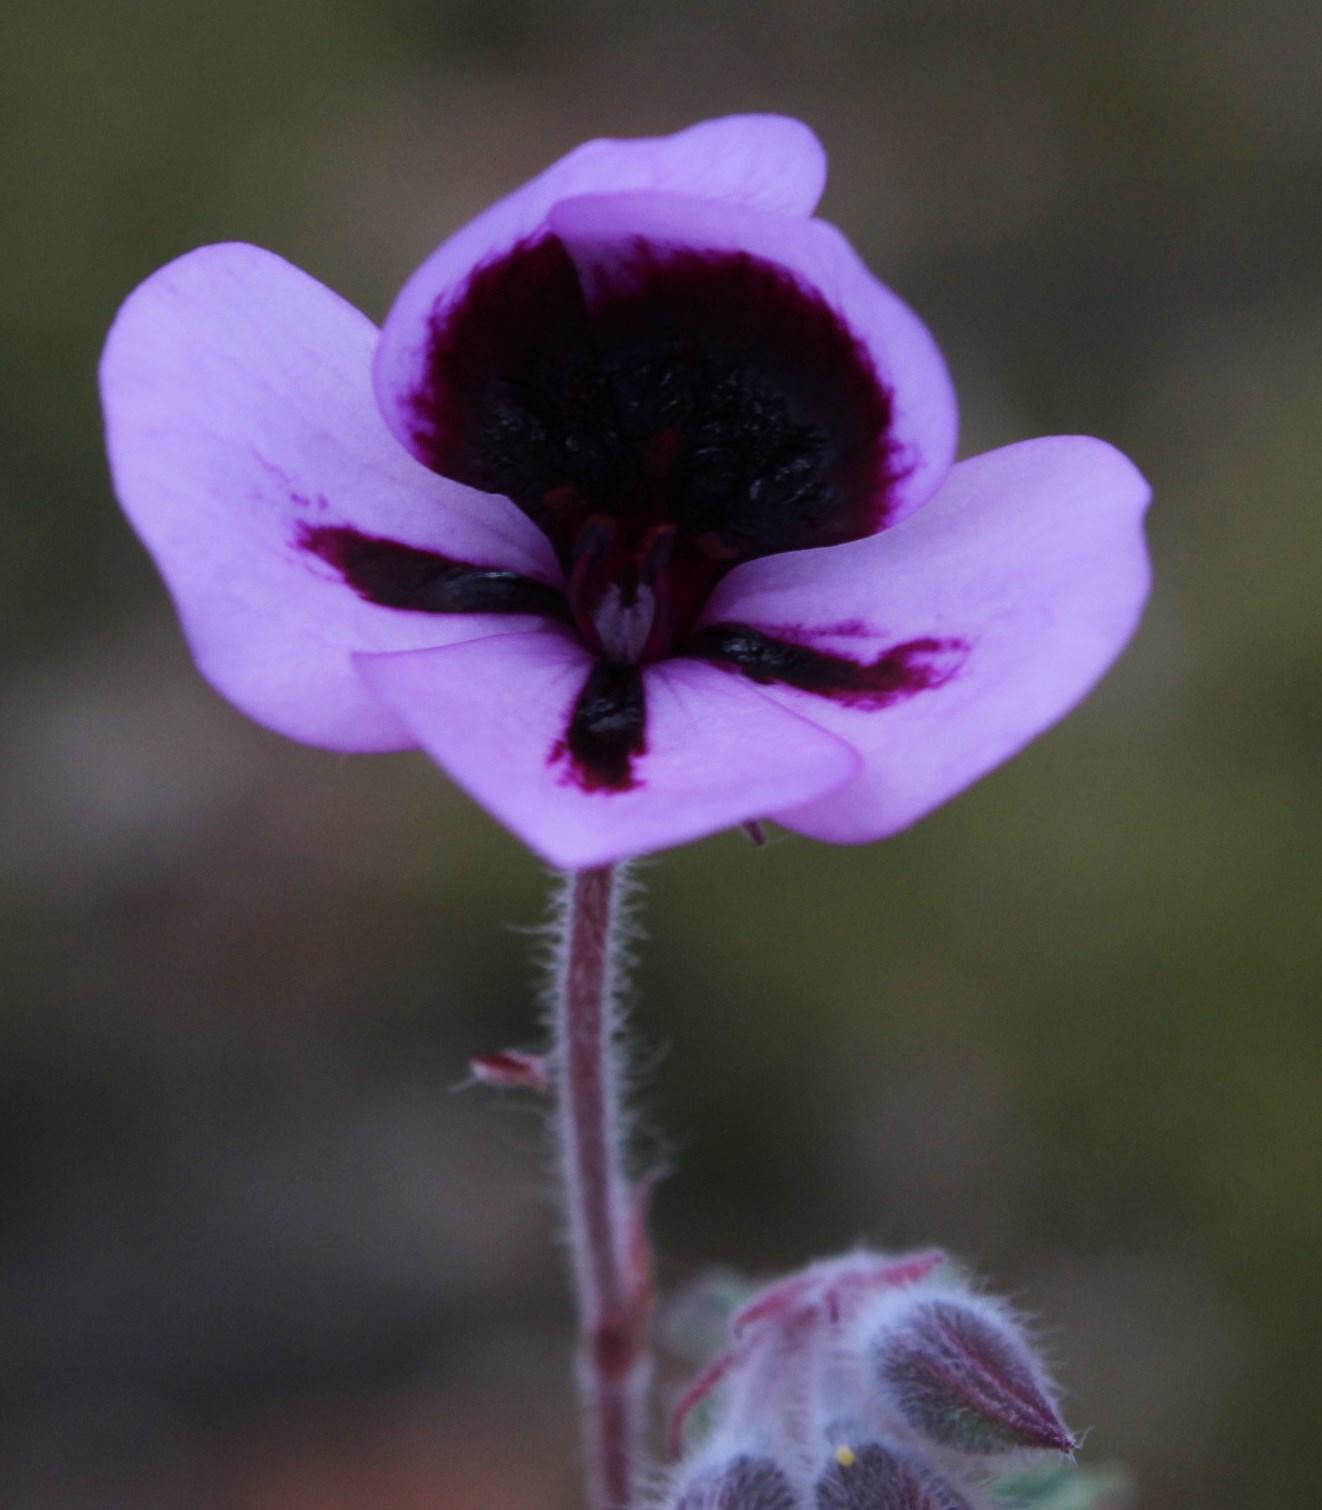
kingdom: Plantae
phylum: Tracheophyta
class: Magnoliopsida
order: Geraniales
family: Geraniaceae
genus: Pelargonium
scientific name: Pelargonium tricolor
